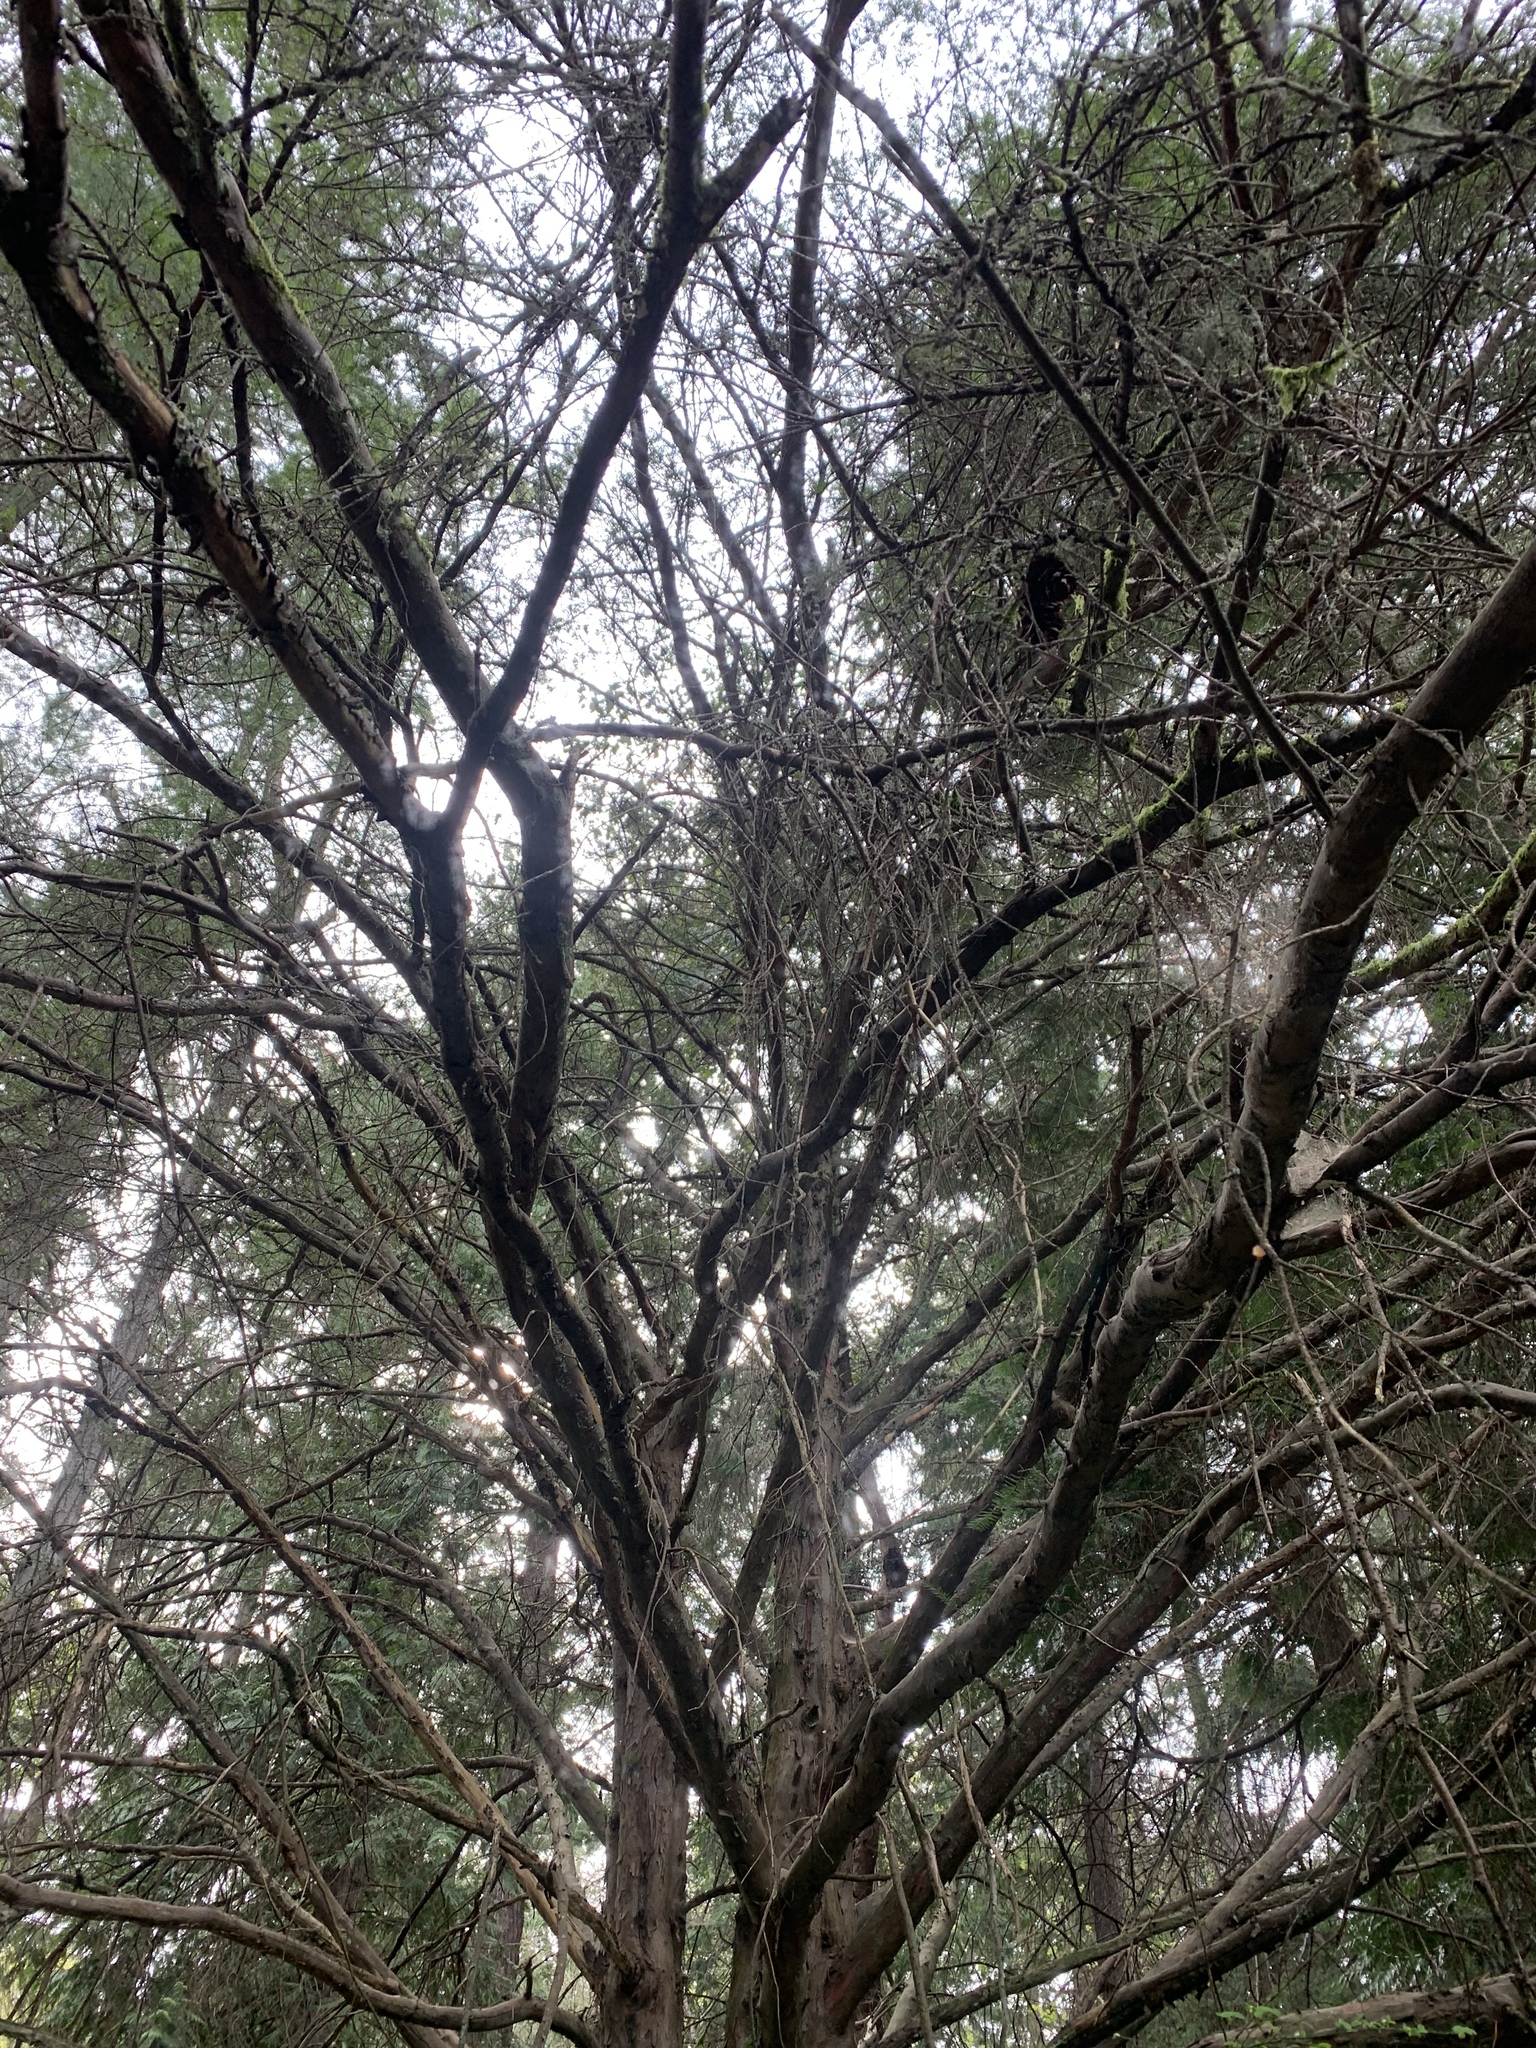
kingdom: Plantae
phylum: Tracheophyta
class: Pinopsida
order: Pinales
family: Taxaceae
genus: Taxus
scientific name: Taxus brevifolia
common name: Pacific yew
